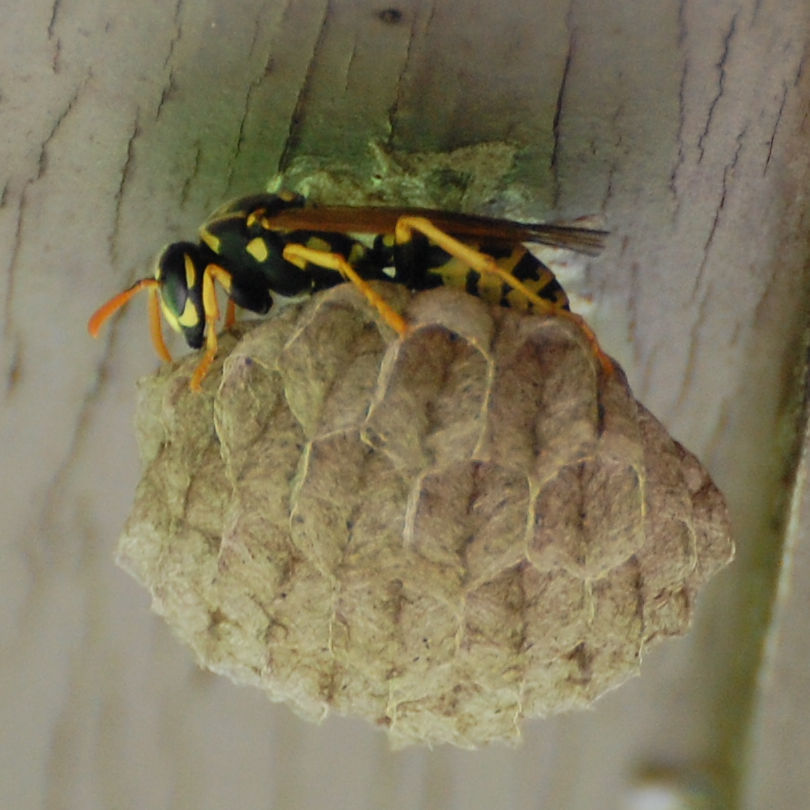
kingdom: Animalia
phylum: Arthropoda
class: Insecta
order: Hymenoptera
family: Eumenidae
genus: Polistes
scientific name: Polistes dominula
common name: Paper wasp
